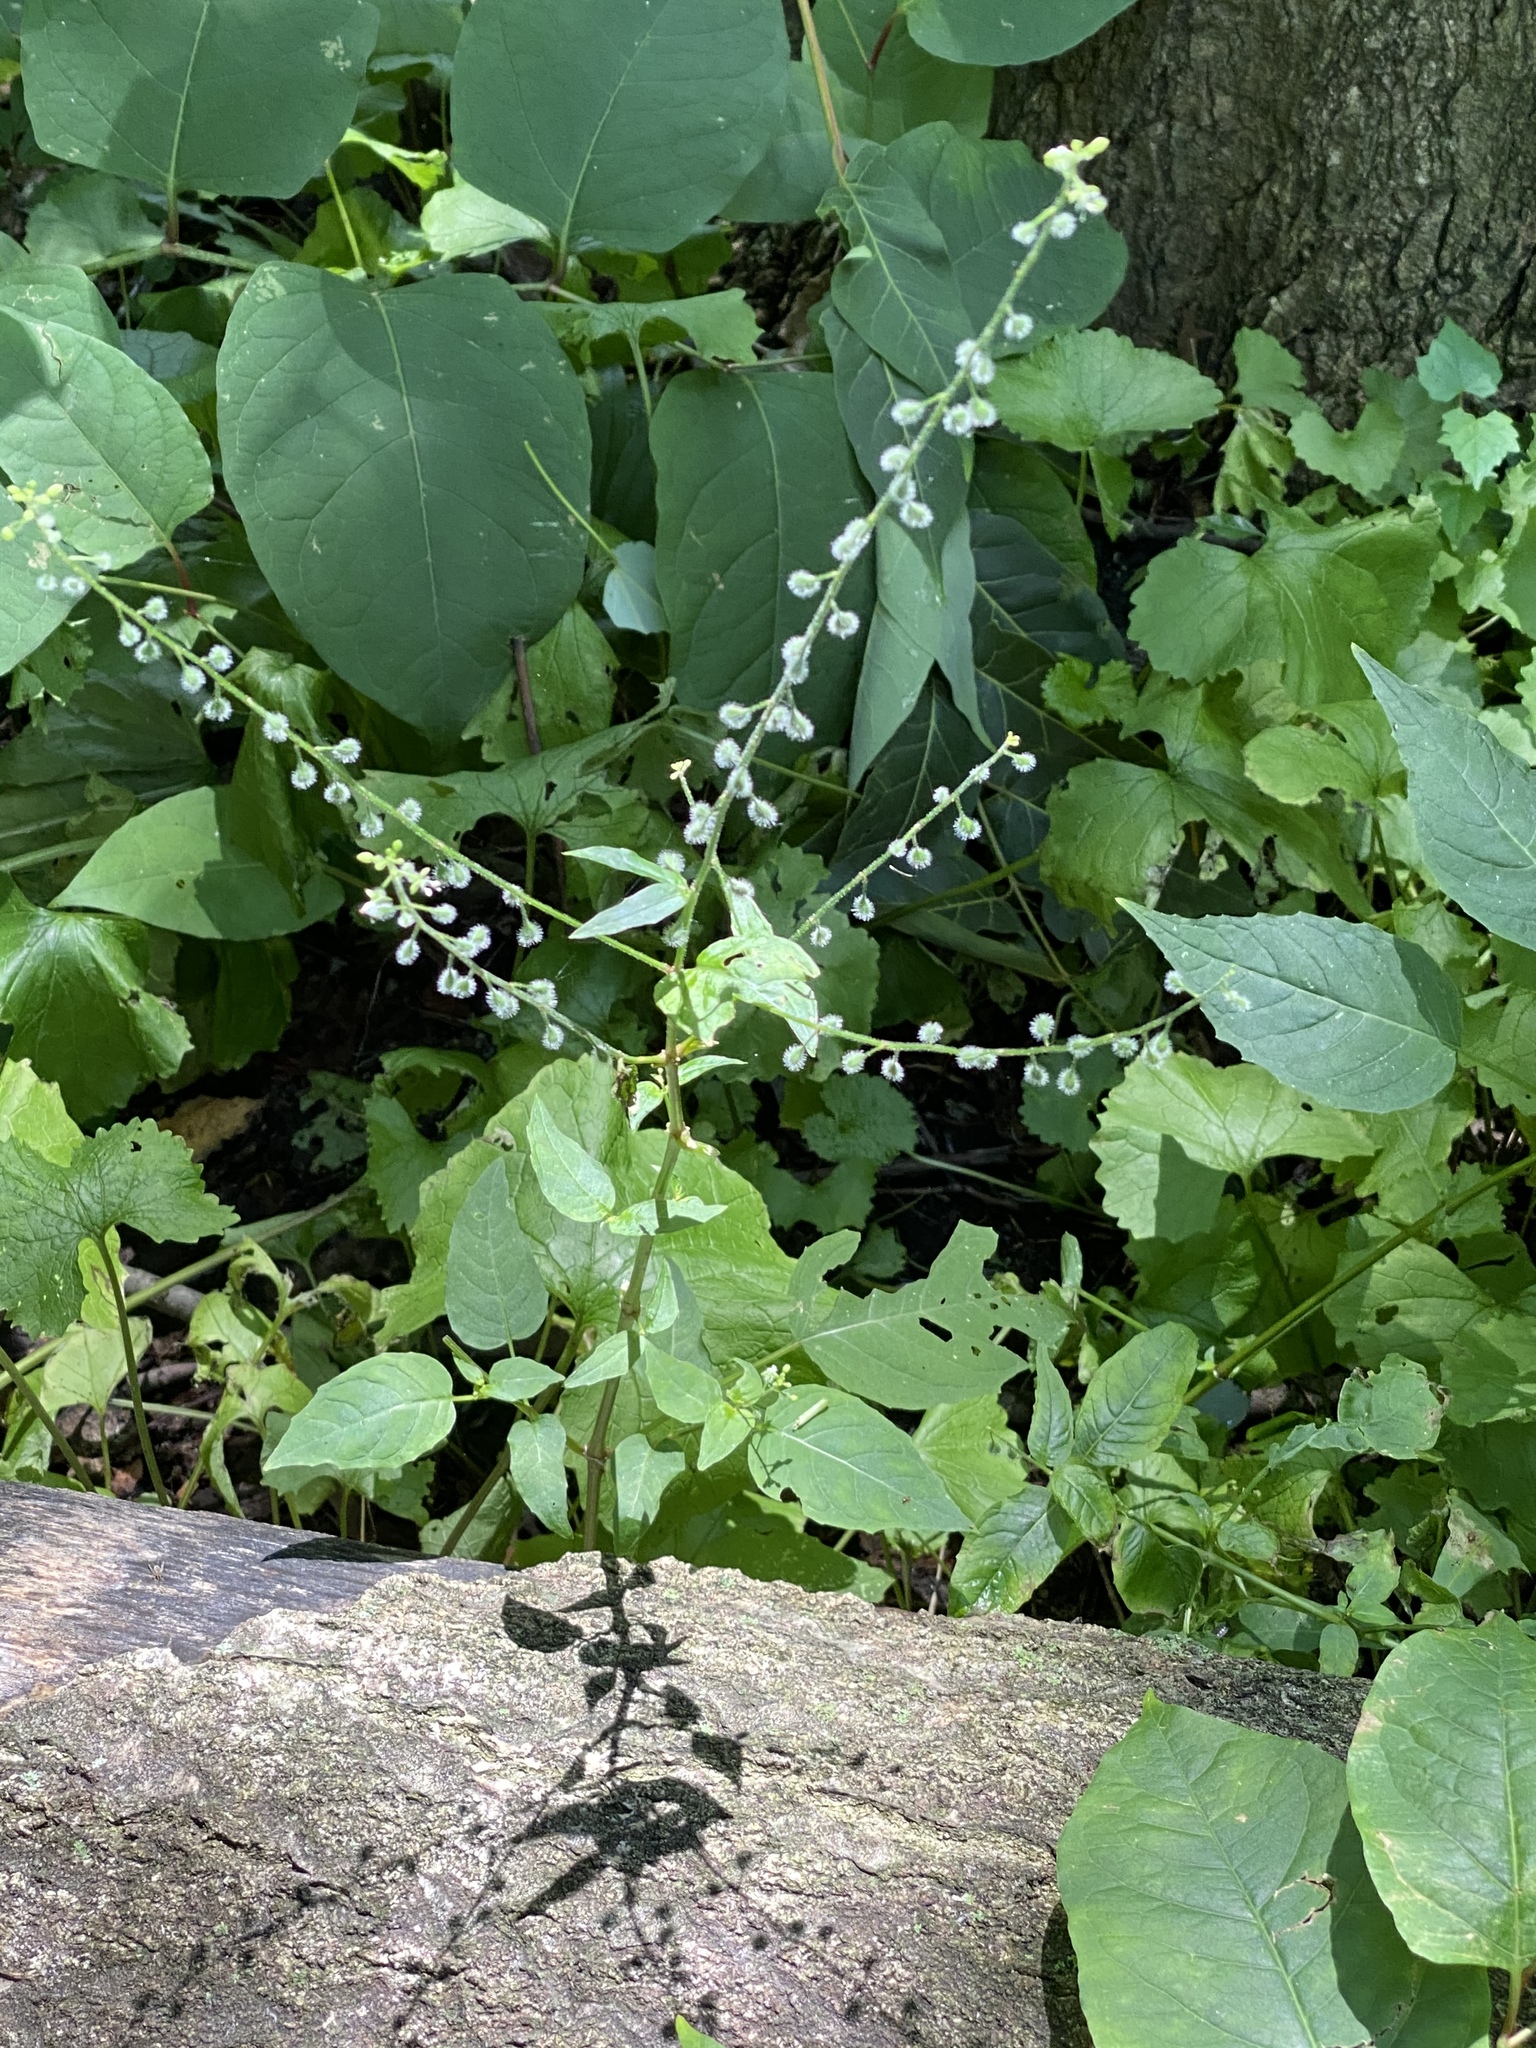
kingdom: Plantae
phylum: Tracheophyta
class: Magnoliopsida
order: Myrtales
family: Onagraceae
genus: Circaea
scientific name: Circaea canadensis
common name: Broad-leaved enchanter's nightshade
